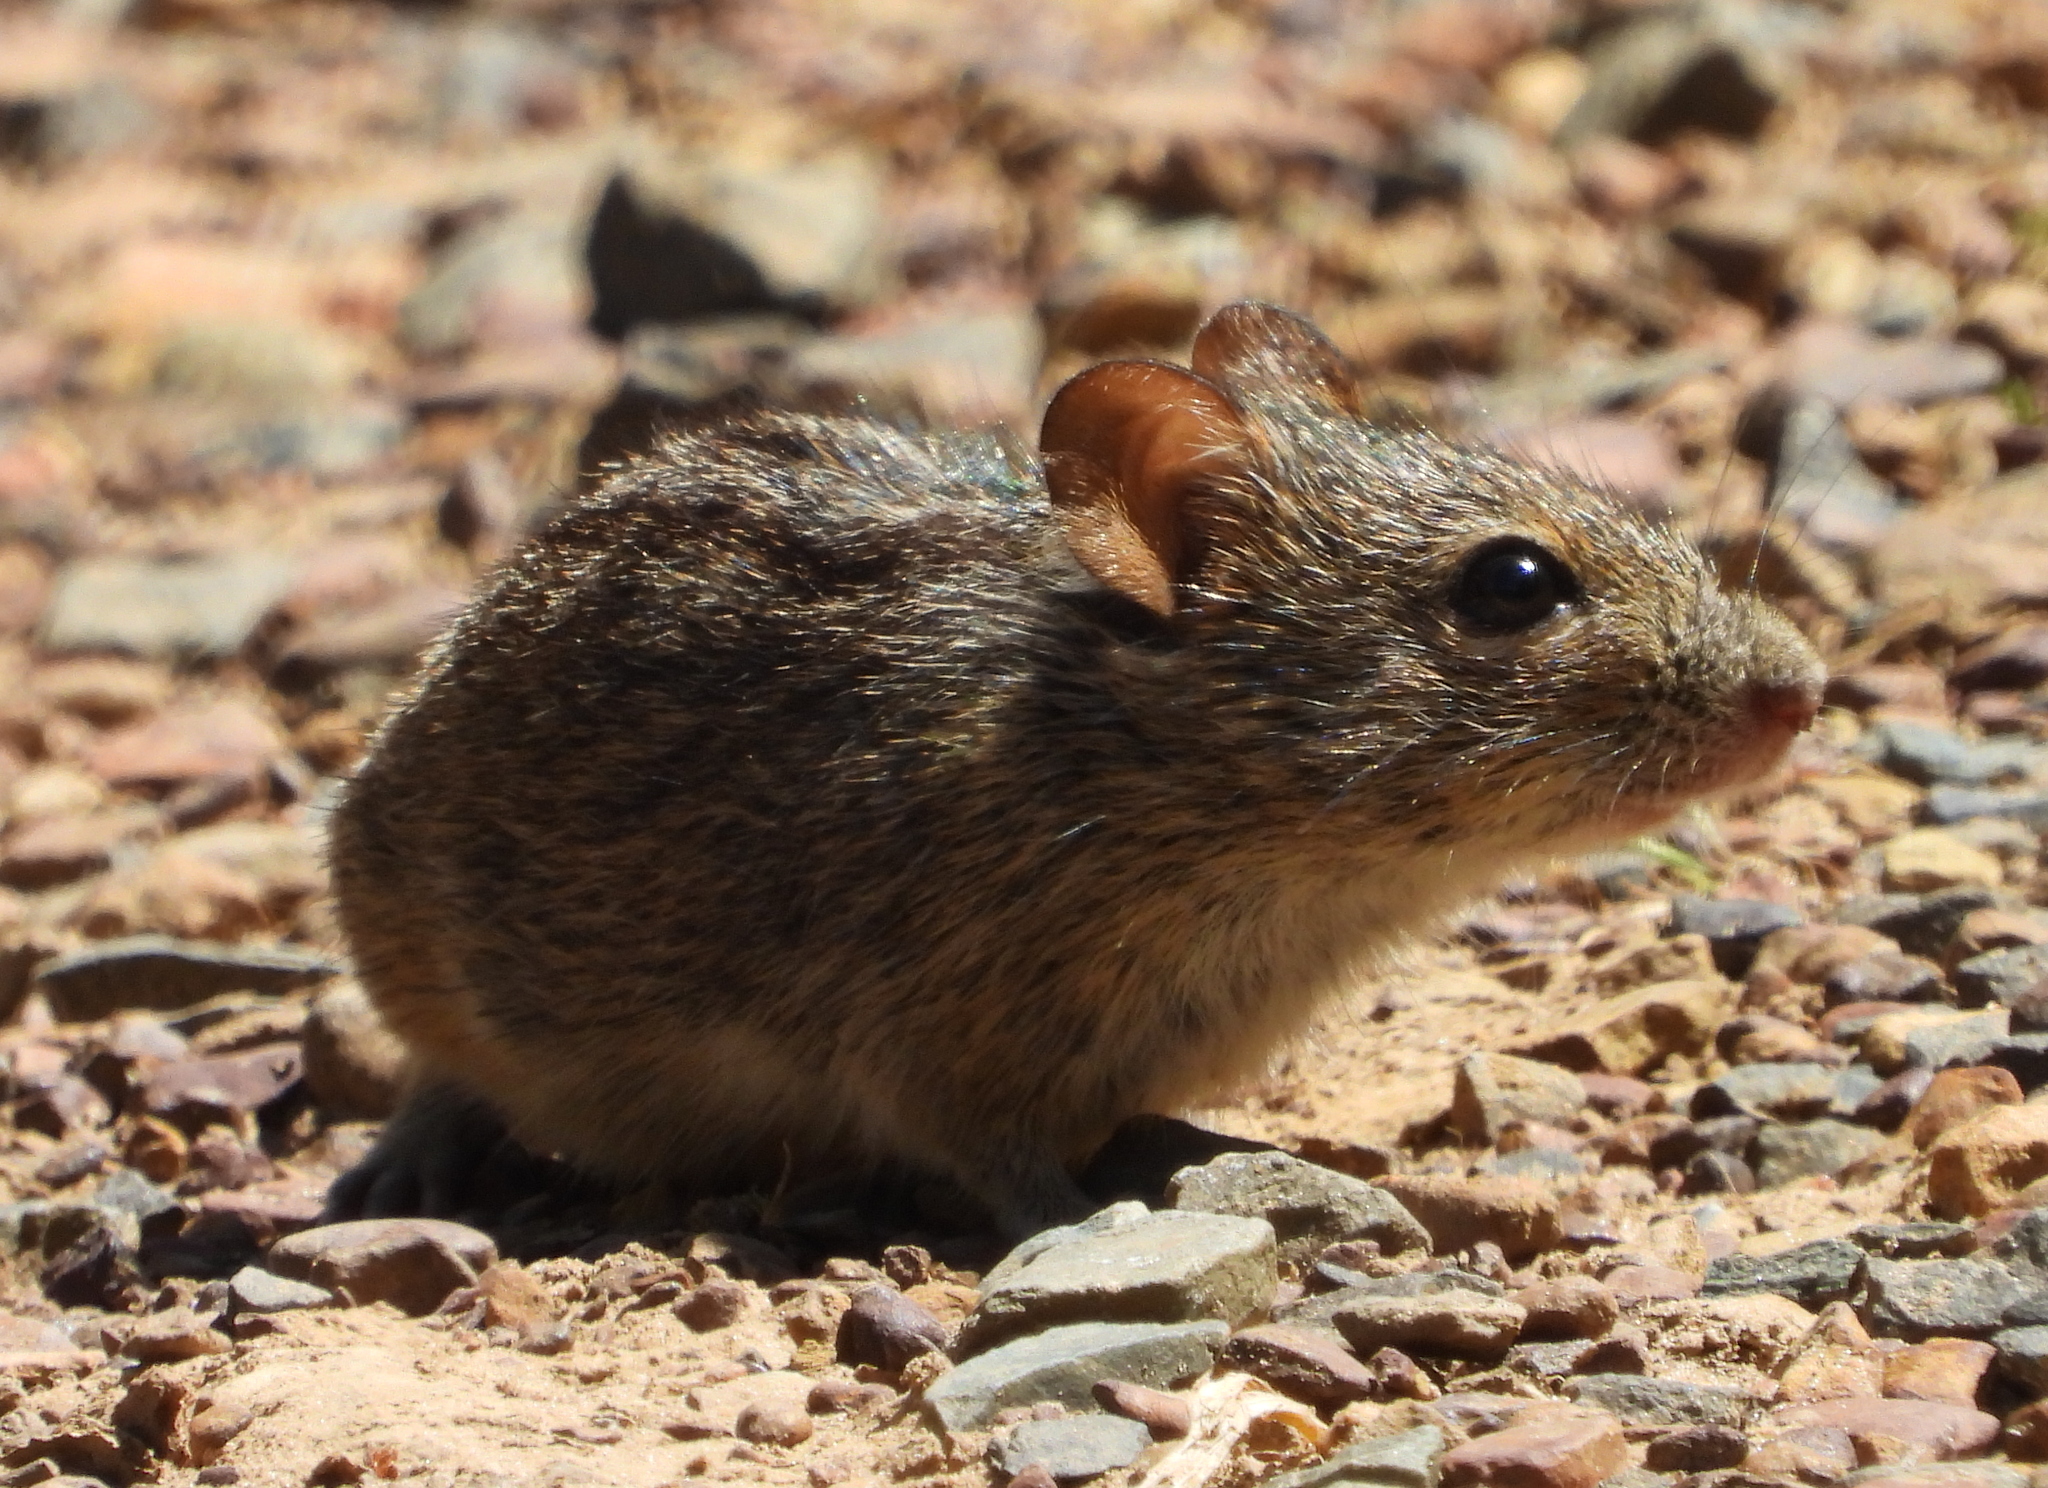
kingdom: Animalia
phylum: Chordata
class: Mammalia
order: Rodentia
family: Muridae
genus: Rhabdomys
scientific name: Rhabdomys pumilio
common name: Xeric four-striped grass rat
